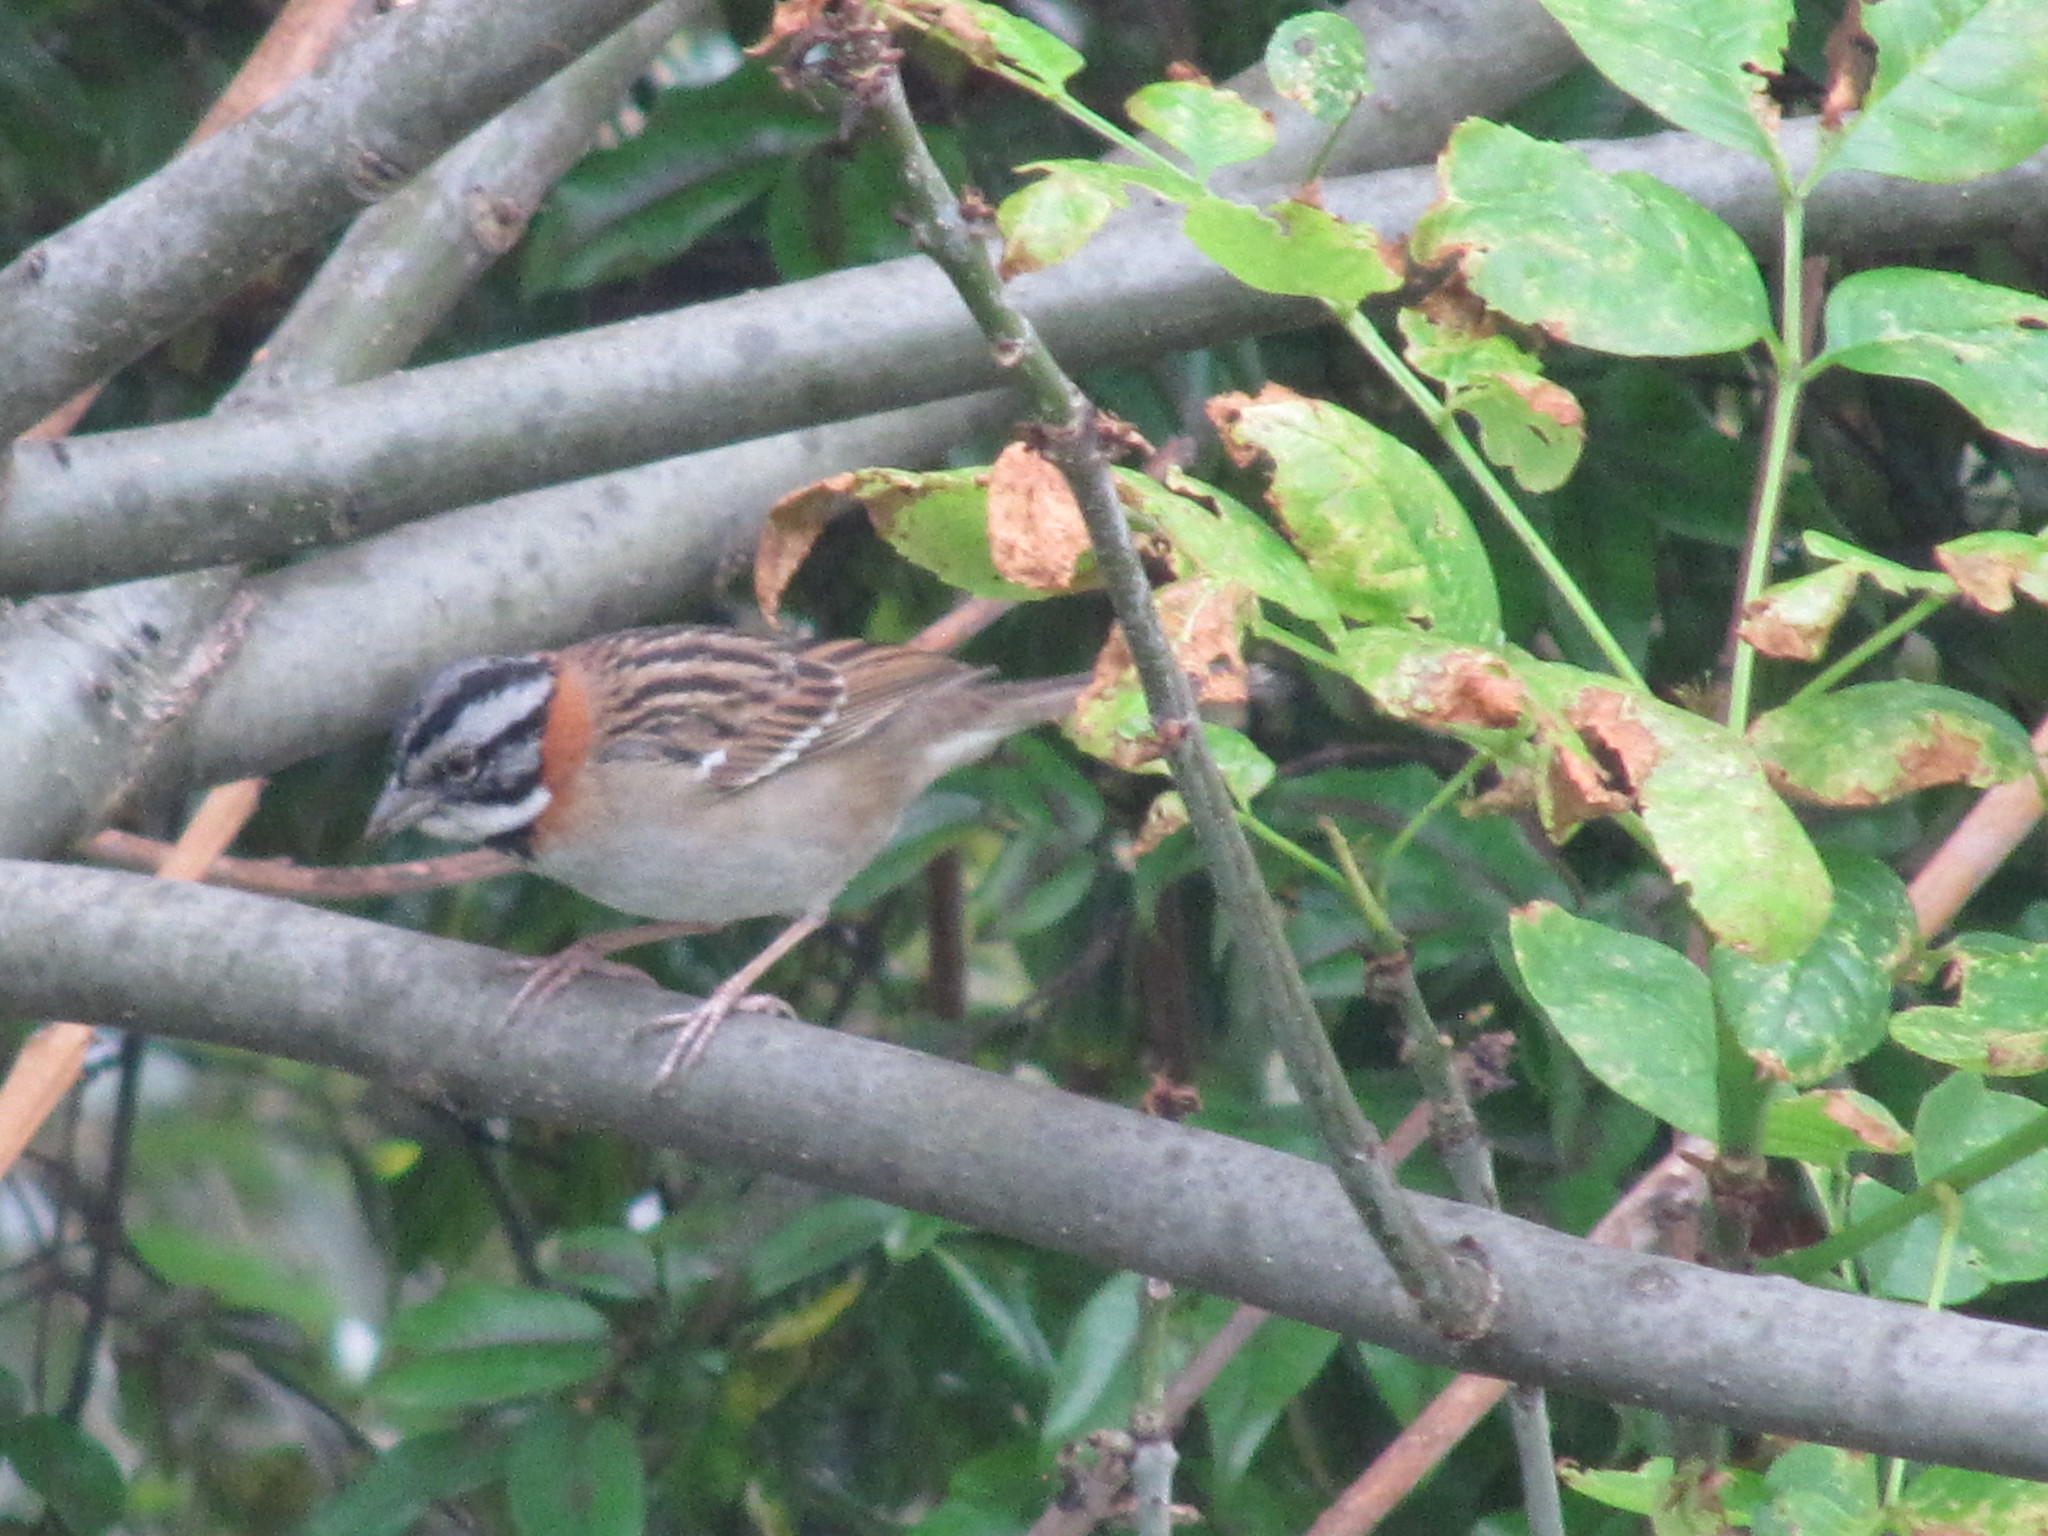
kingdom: Animalia
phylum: Chordata
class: Aves
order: Passeriformes
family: Passerellidae
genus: Zonotrichia
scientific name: Zonotrichia capensis
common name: Rufous-collared sparrow
